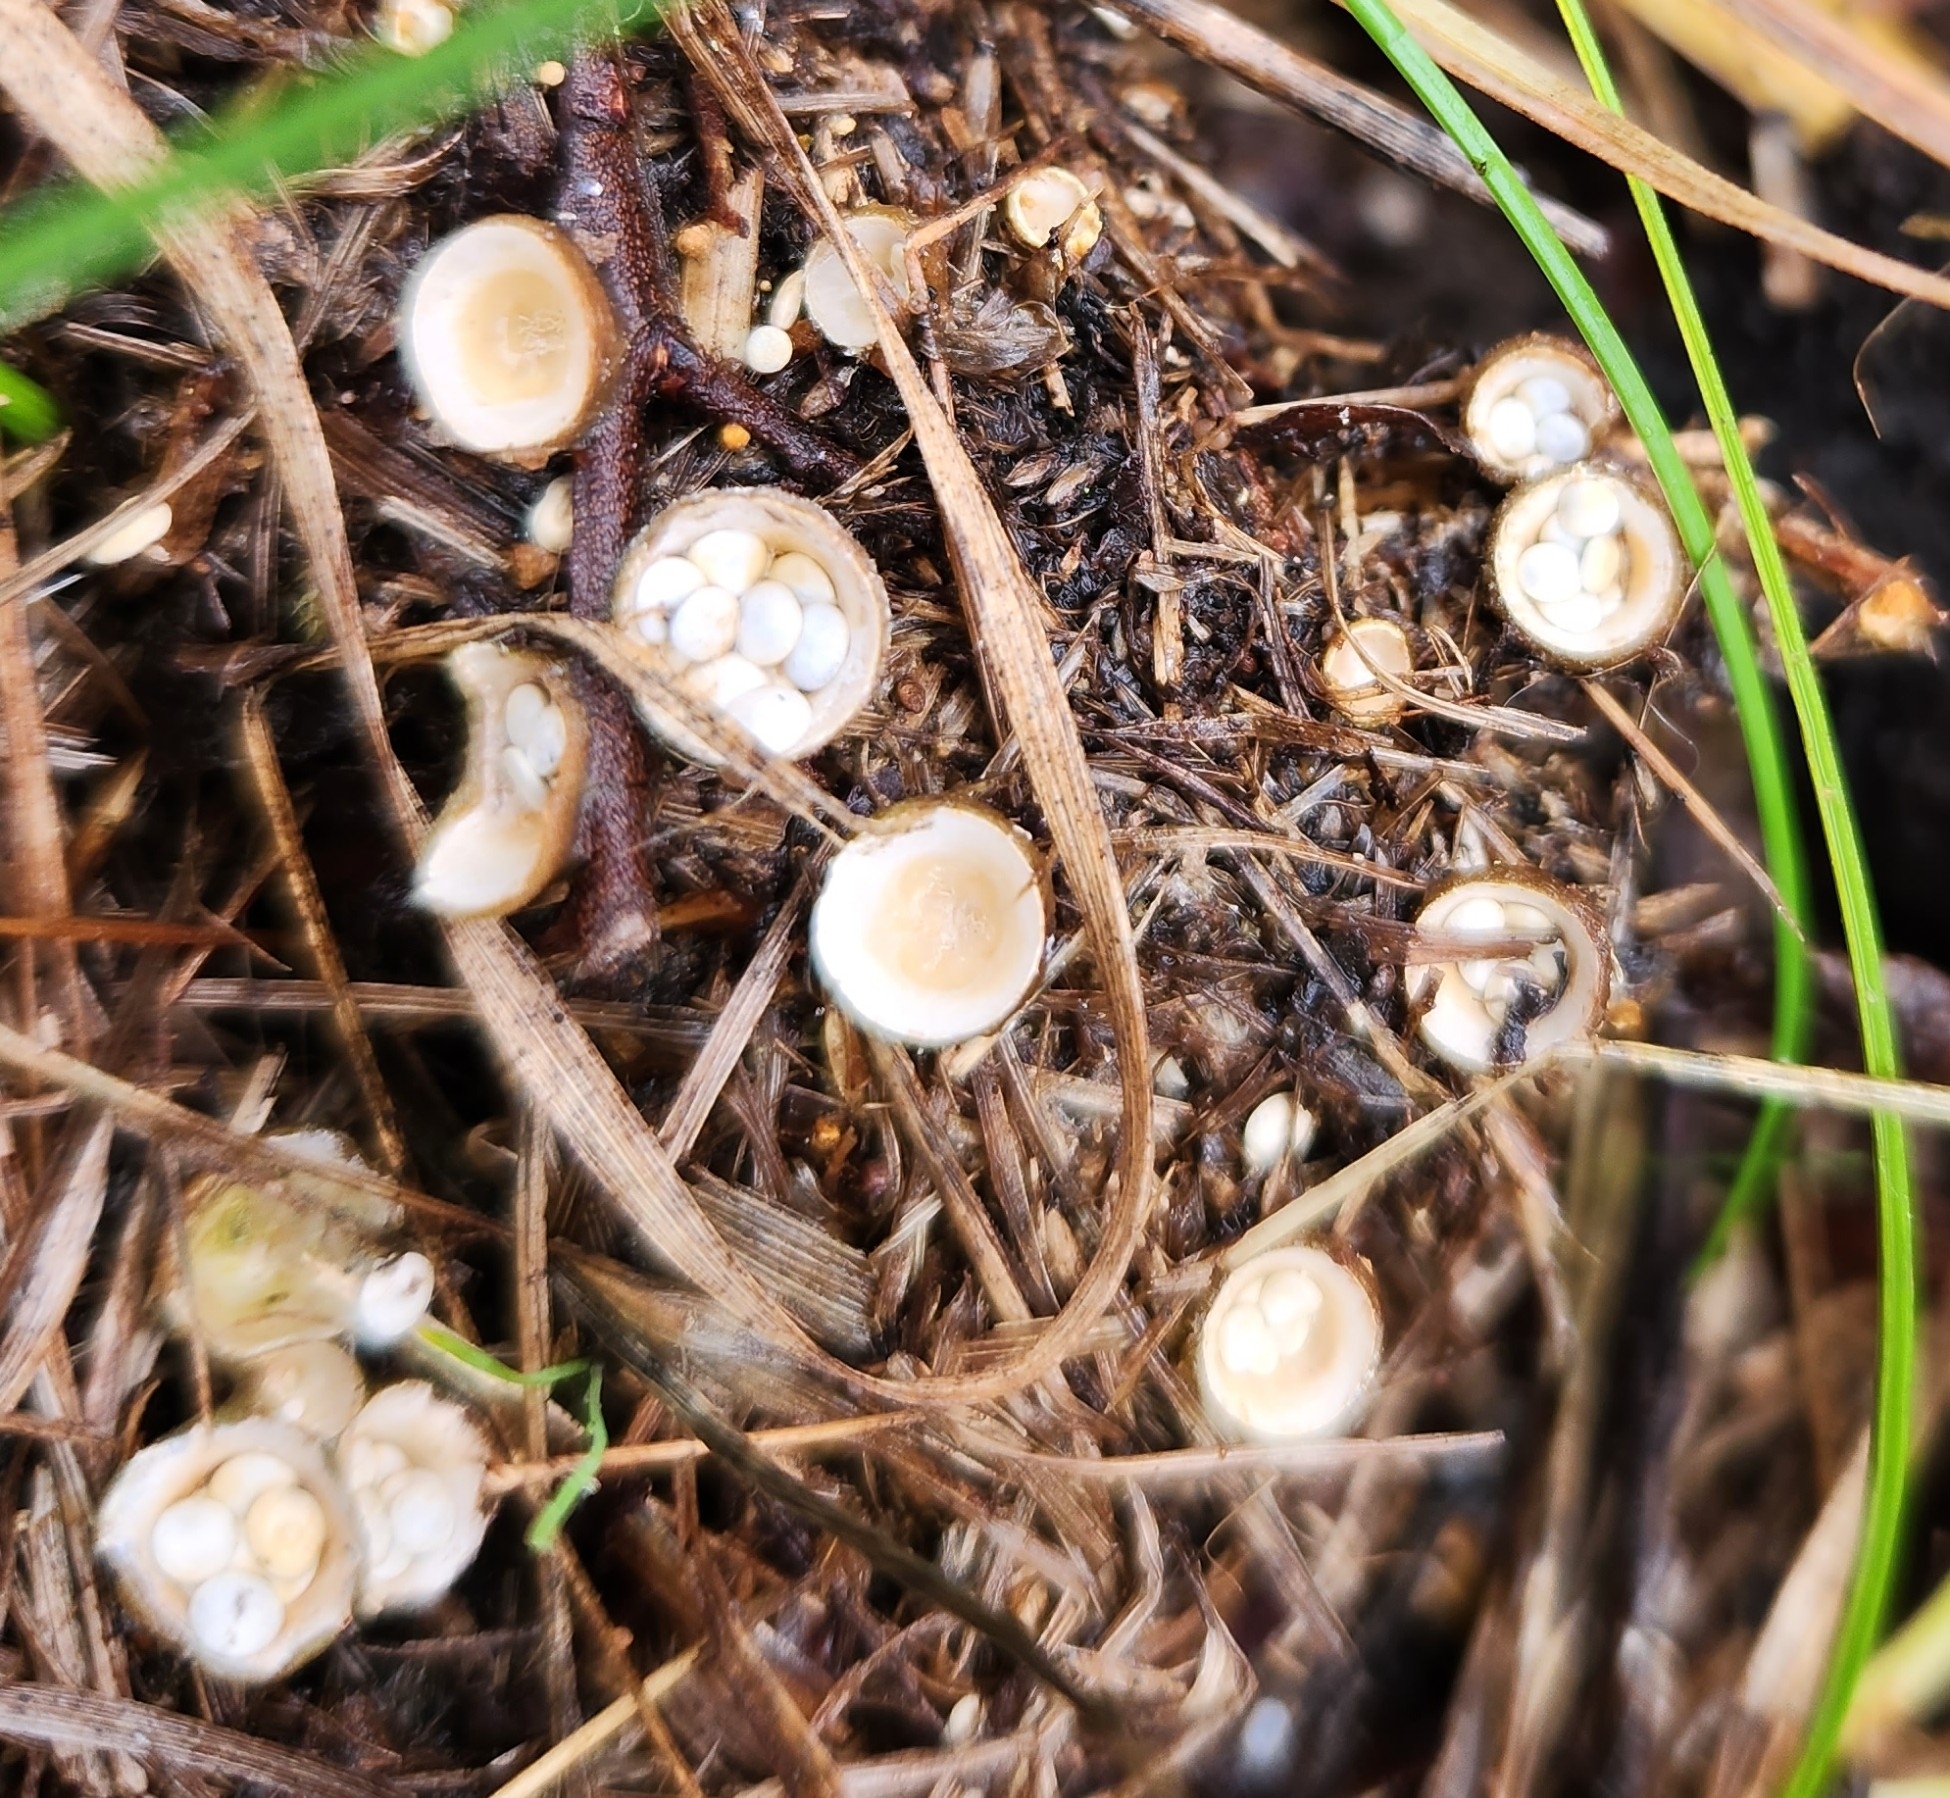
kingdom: Fungi
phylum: Basidiomycota
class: Agaricomycetes
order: Agaricales
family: Nidulariaceae
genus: Crucibulum
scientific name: Crucibulum laeve
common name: Common bird's nest
